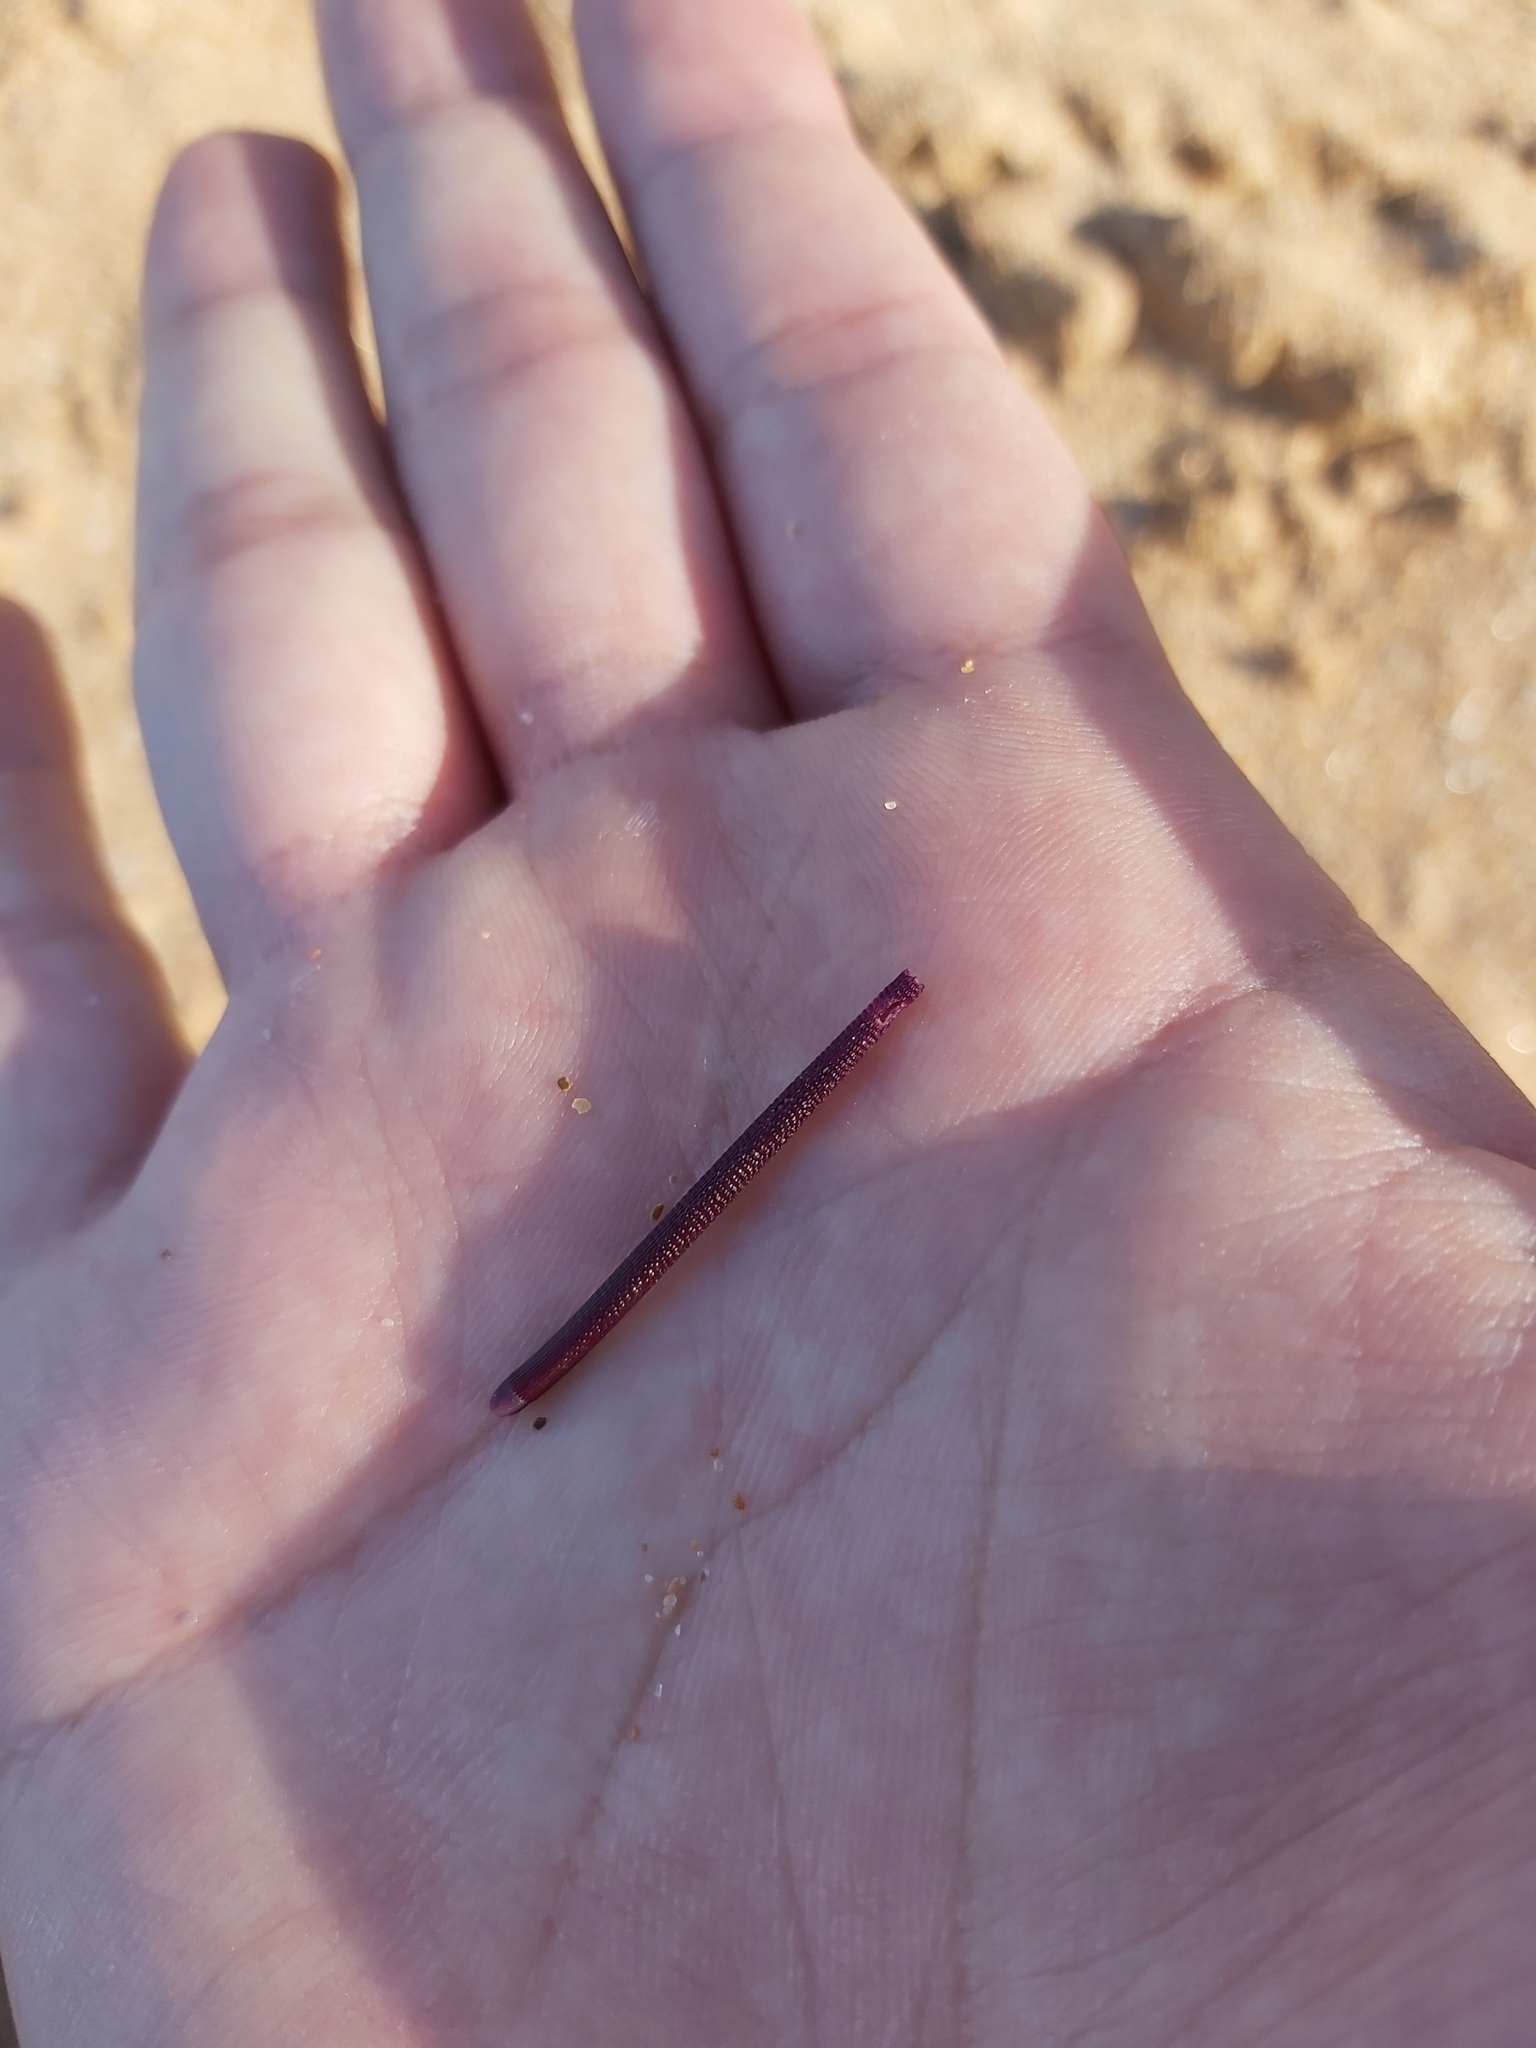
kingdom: Animalia
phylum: Echinodermata
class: Echinoidea
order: Diadematoida
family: Diadematidae
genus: Centrostephanus
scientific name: Centrostephanus rodgersii
